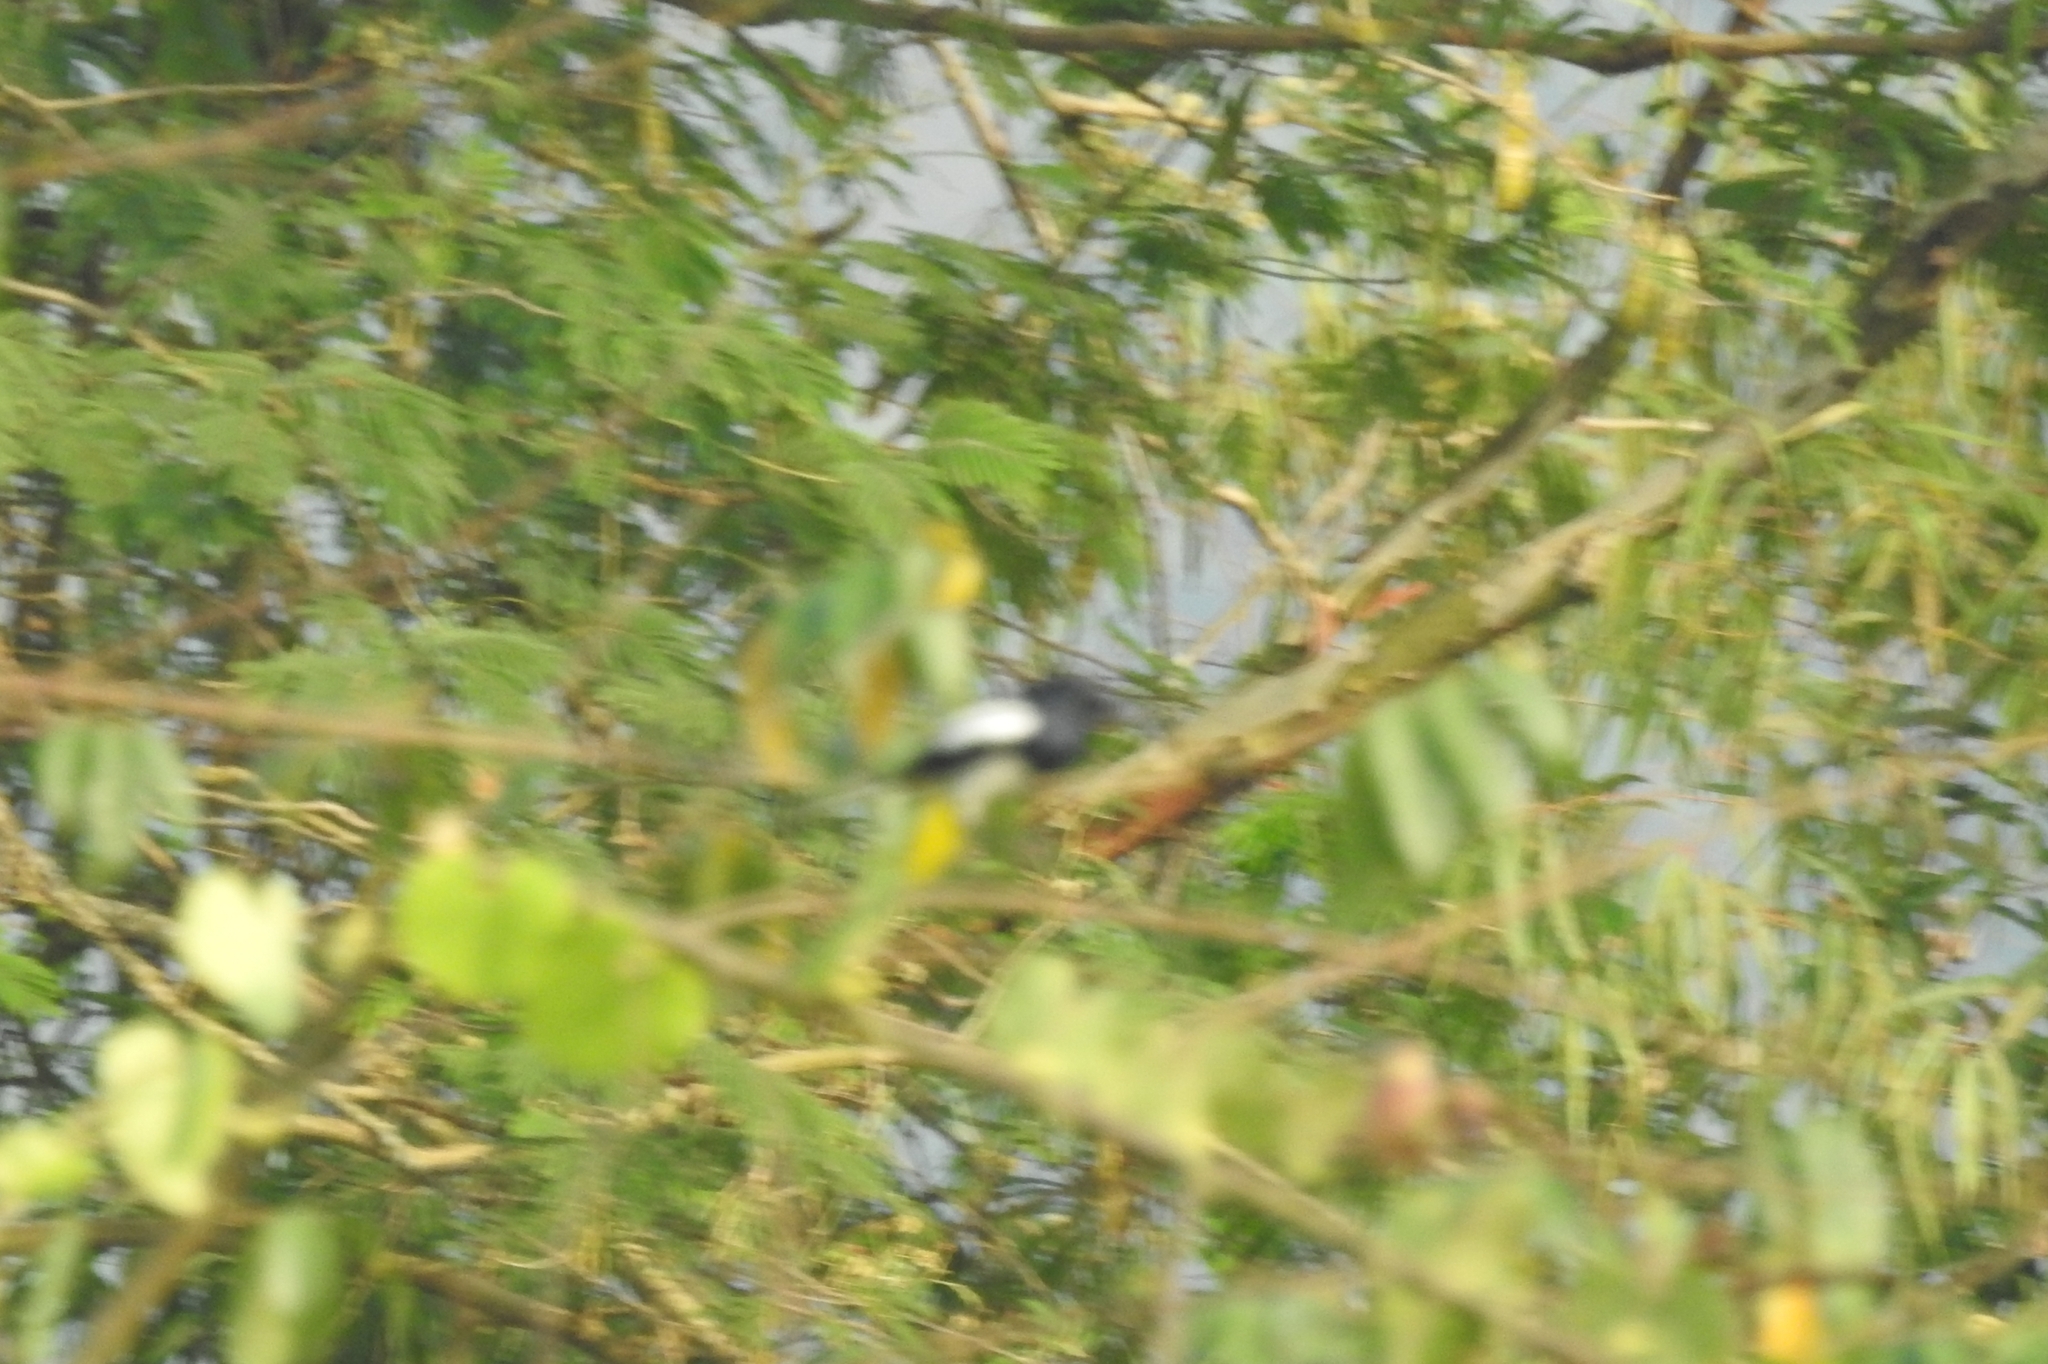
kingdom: Animalia
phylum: Chordata
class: Aves
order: Passeriformes
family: Muscicapidae
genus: Copsychus
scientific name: Copsychus saularis
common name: Oriental magpie-robin
